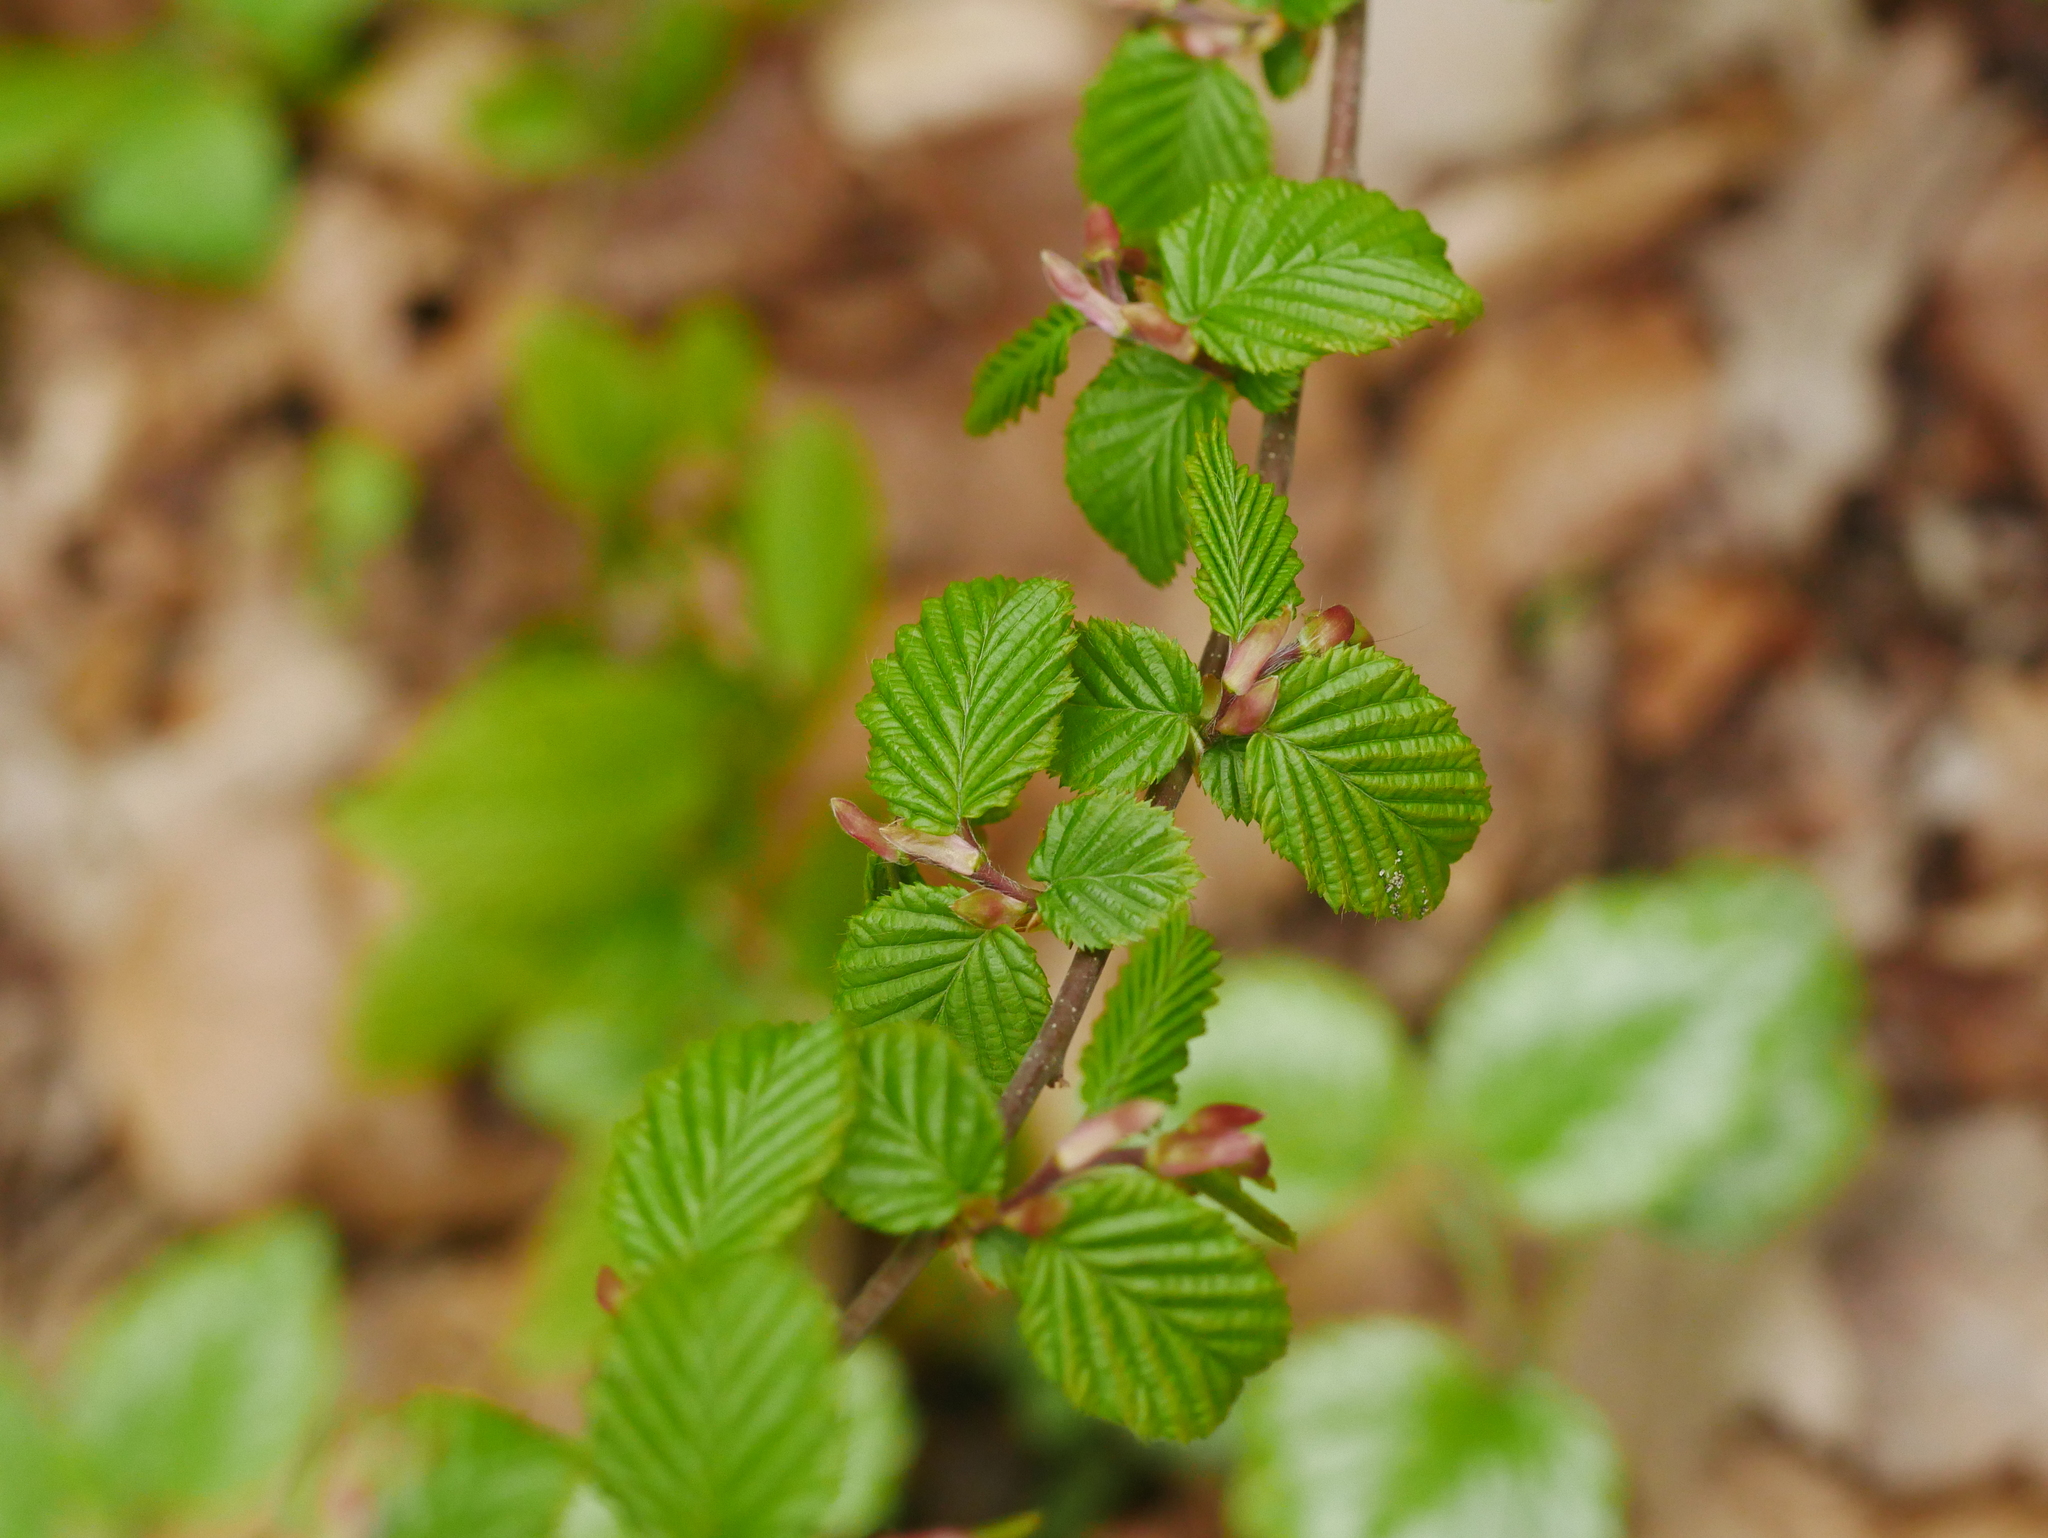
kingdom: Plantae
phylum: Tracheophyta
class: Magnoliopsida
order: Fagales
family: Betulaceae
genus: Carpinus
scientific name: Carpinus betulus
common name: Hornbeam
